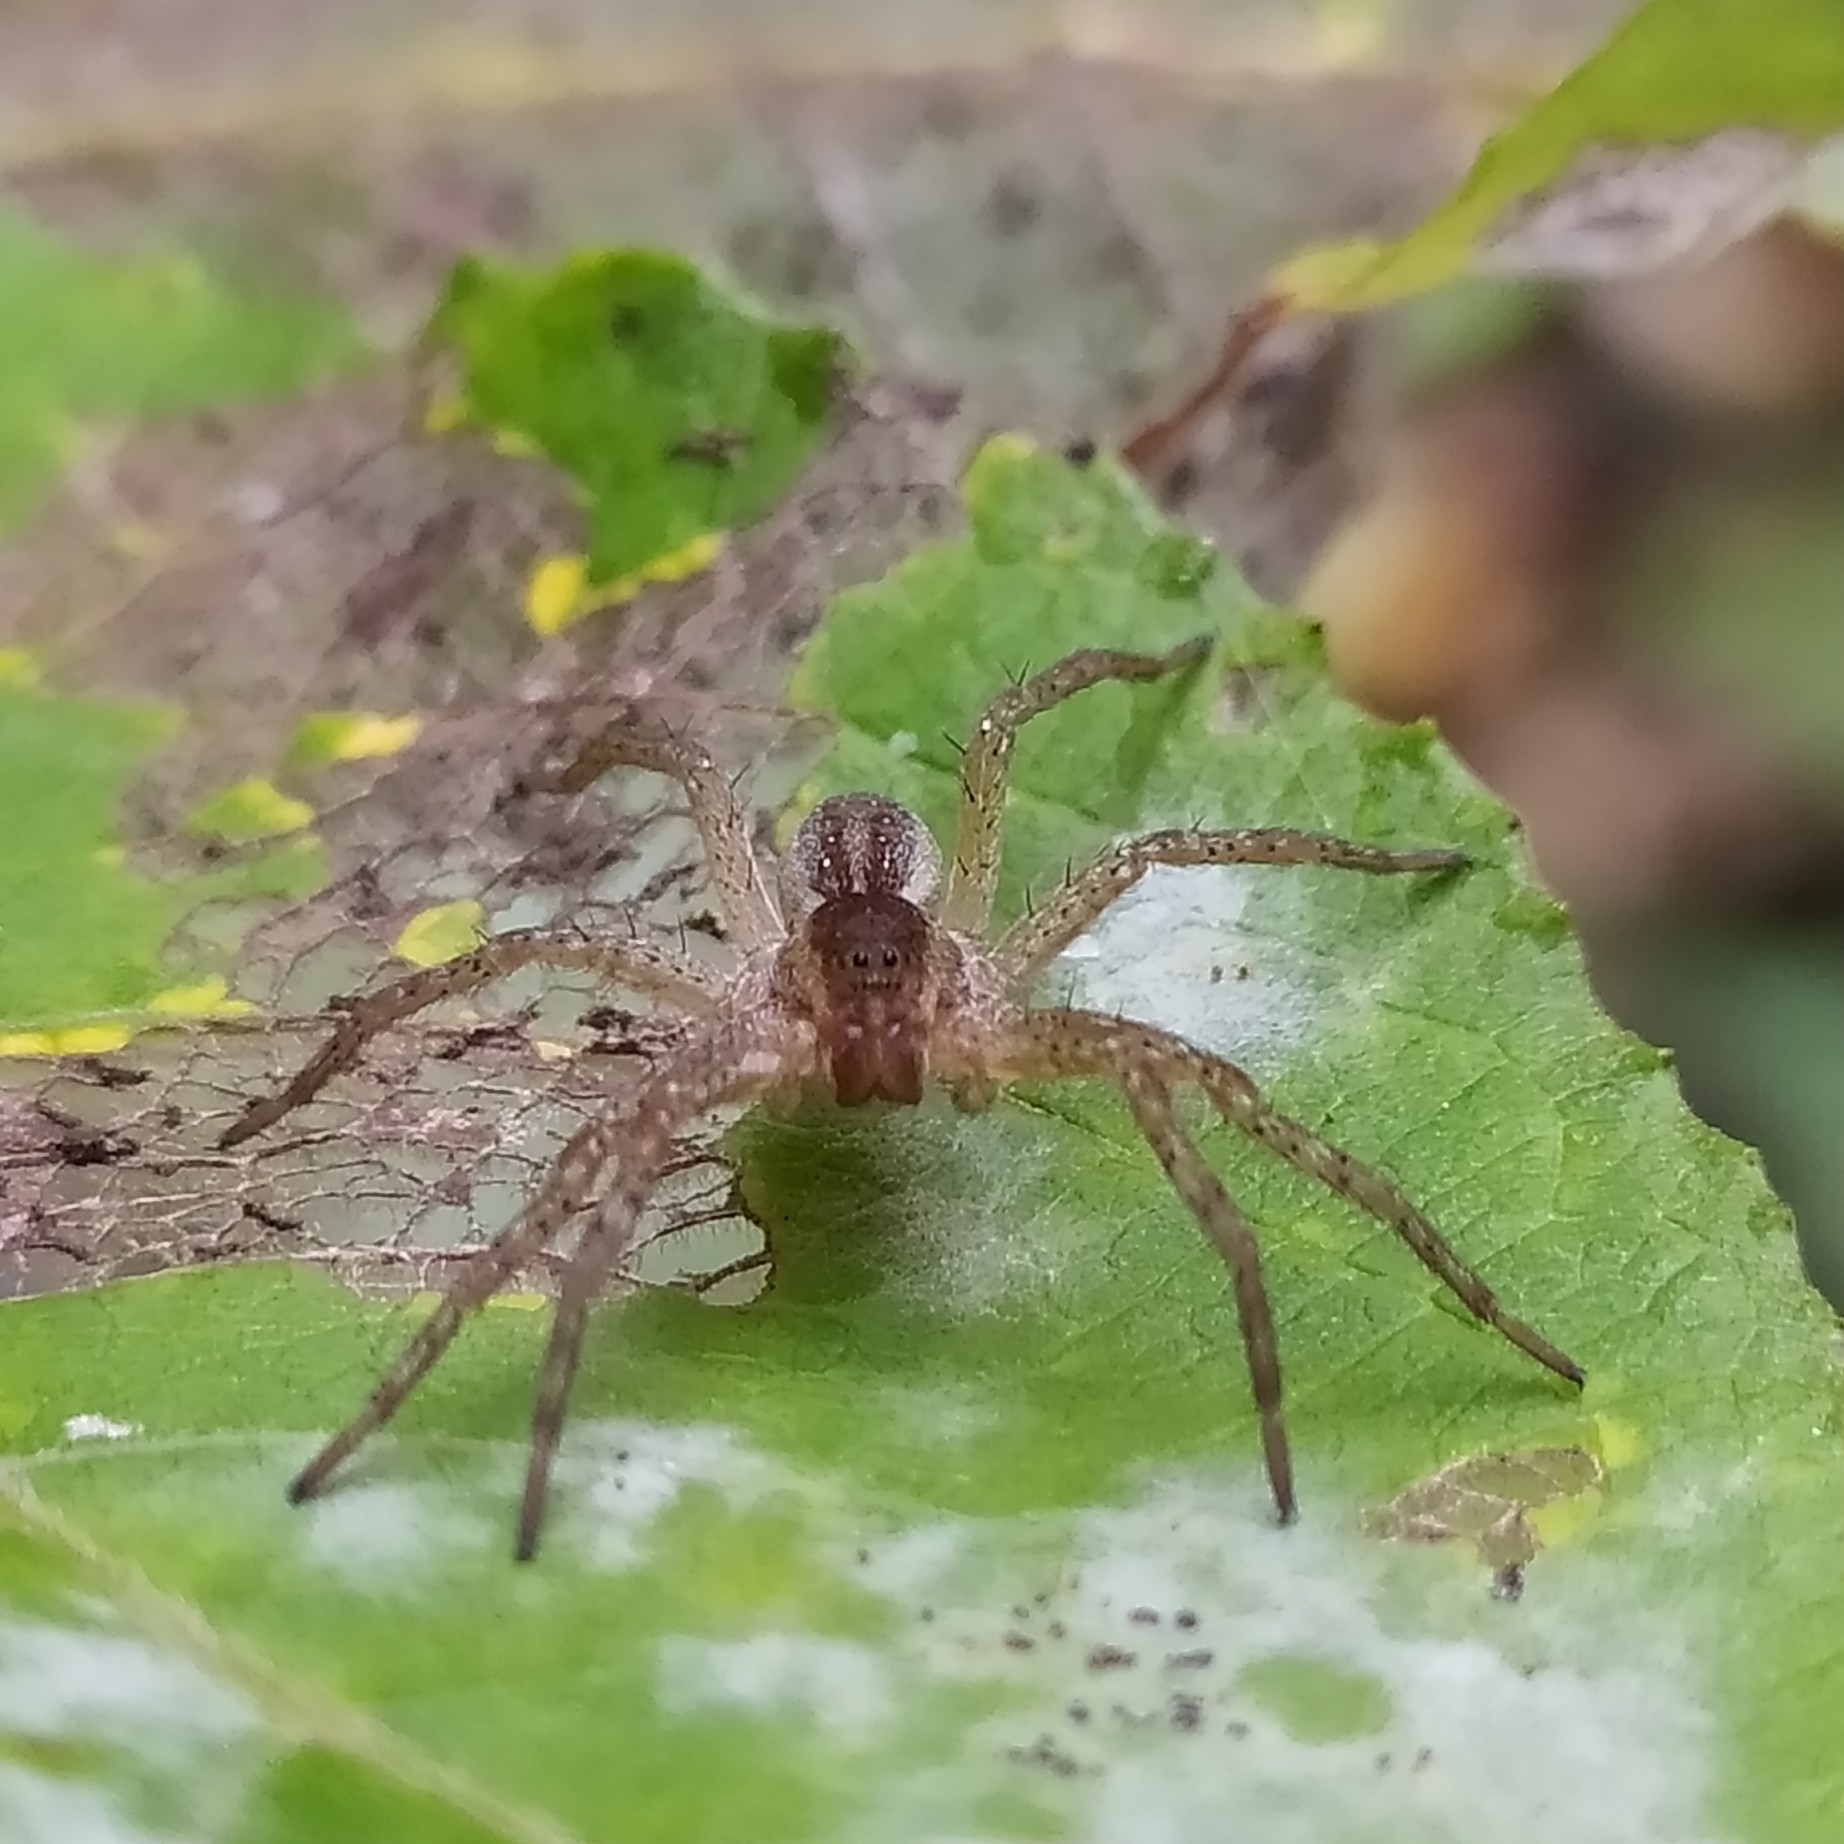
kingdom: Animalia
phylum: Arthropoda
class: Arachnida
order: Araneae
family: Pisauridae
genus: Dolomedes
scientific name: Dolomedes
